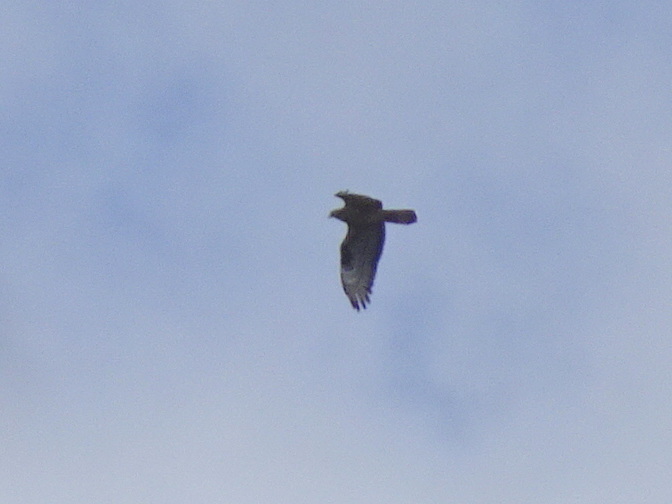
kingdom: Animalia
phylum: Chordata
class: Aves
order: Accipitriformes
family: Accipitridae
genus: Pernis
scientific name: Pernis apivorus
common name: European honey buzzard
